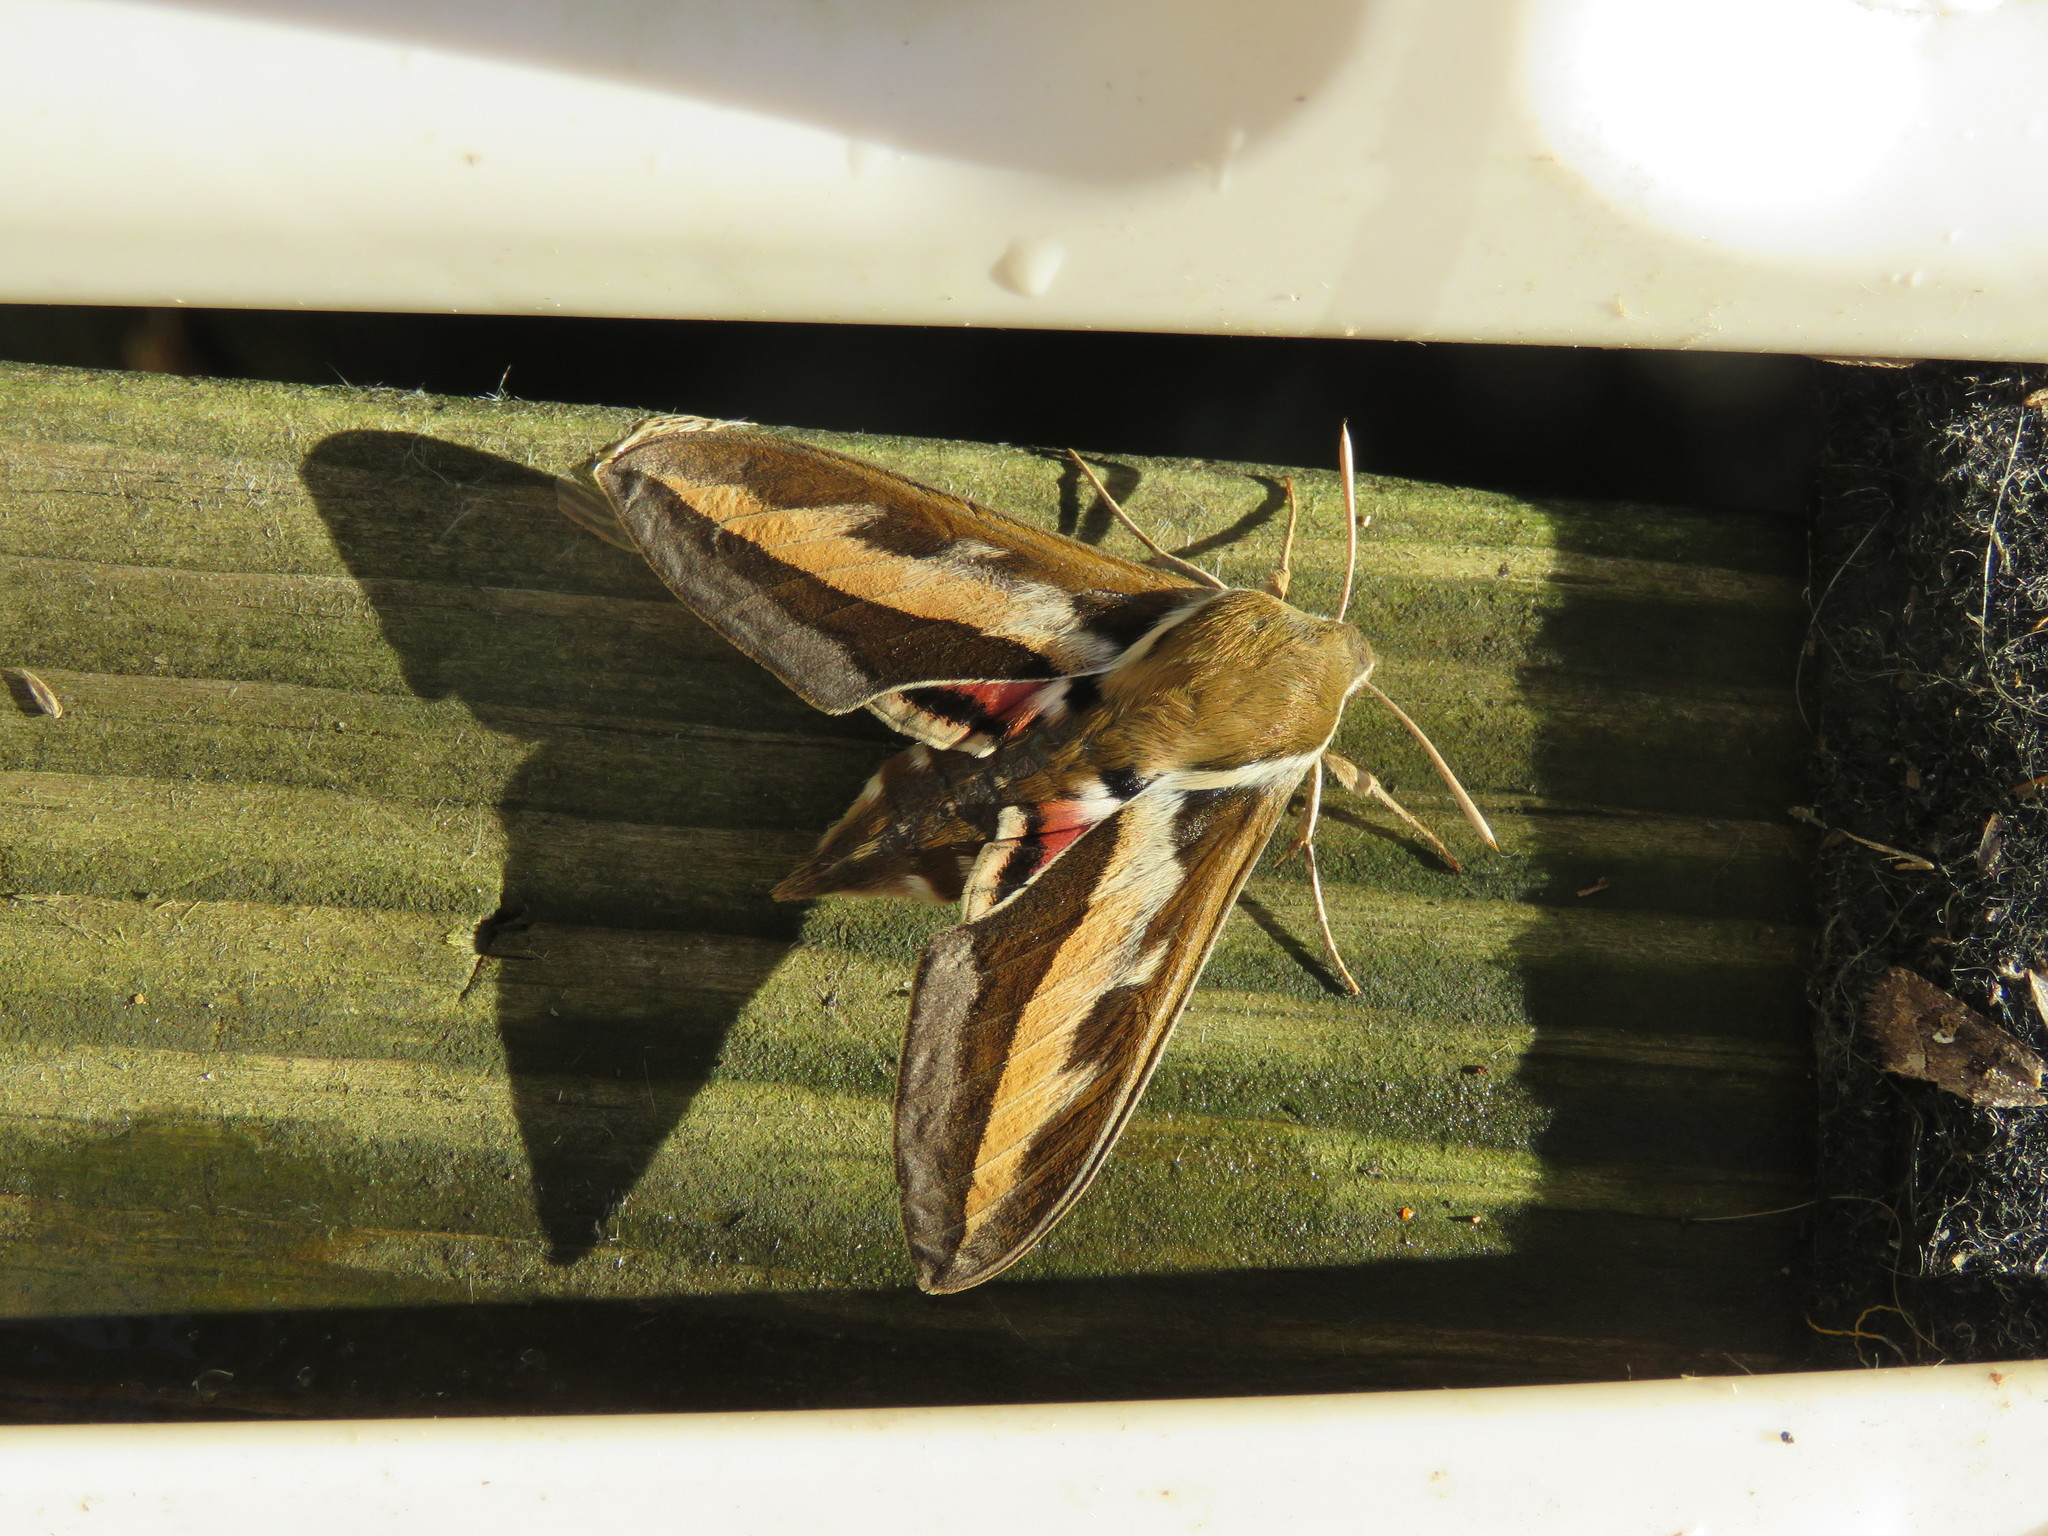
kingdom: Animalia
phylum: Arthropoda
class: Insecta
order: Lepidoptera
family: Sphingidae
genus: Hyles
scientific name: Hyles gallii
